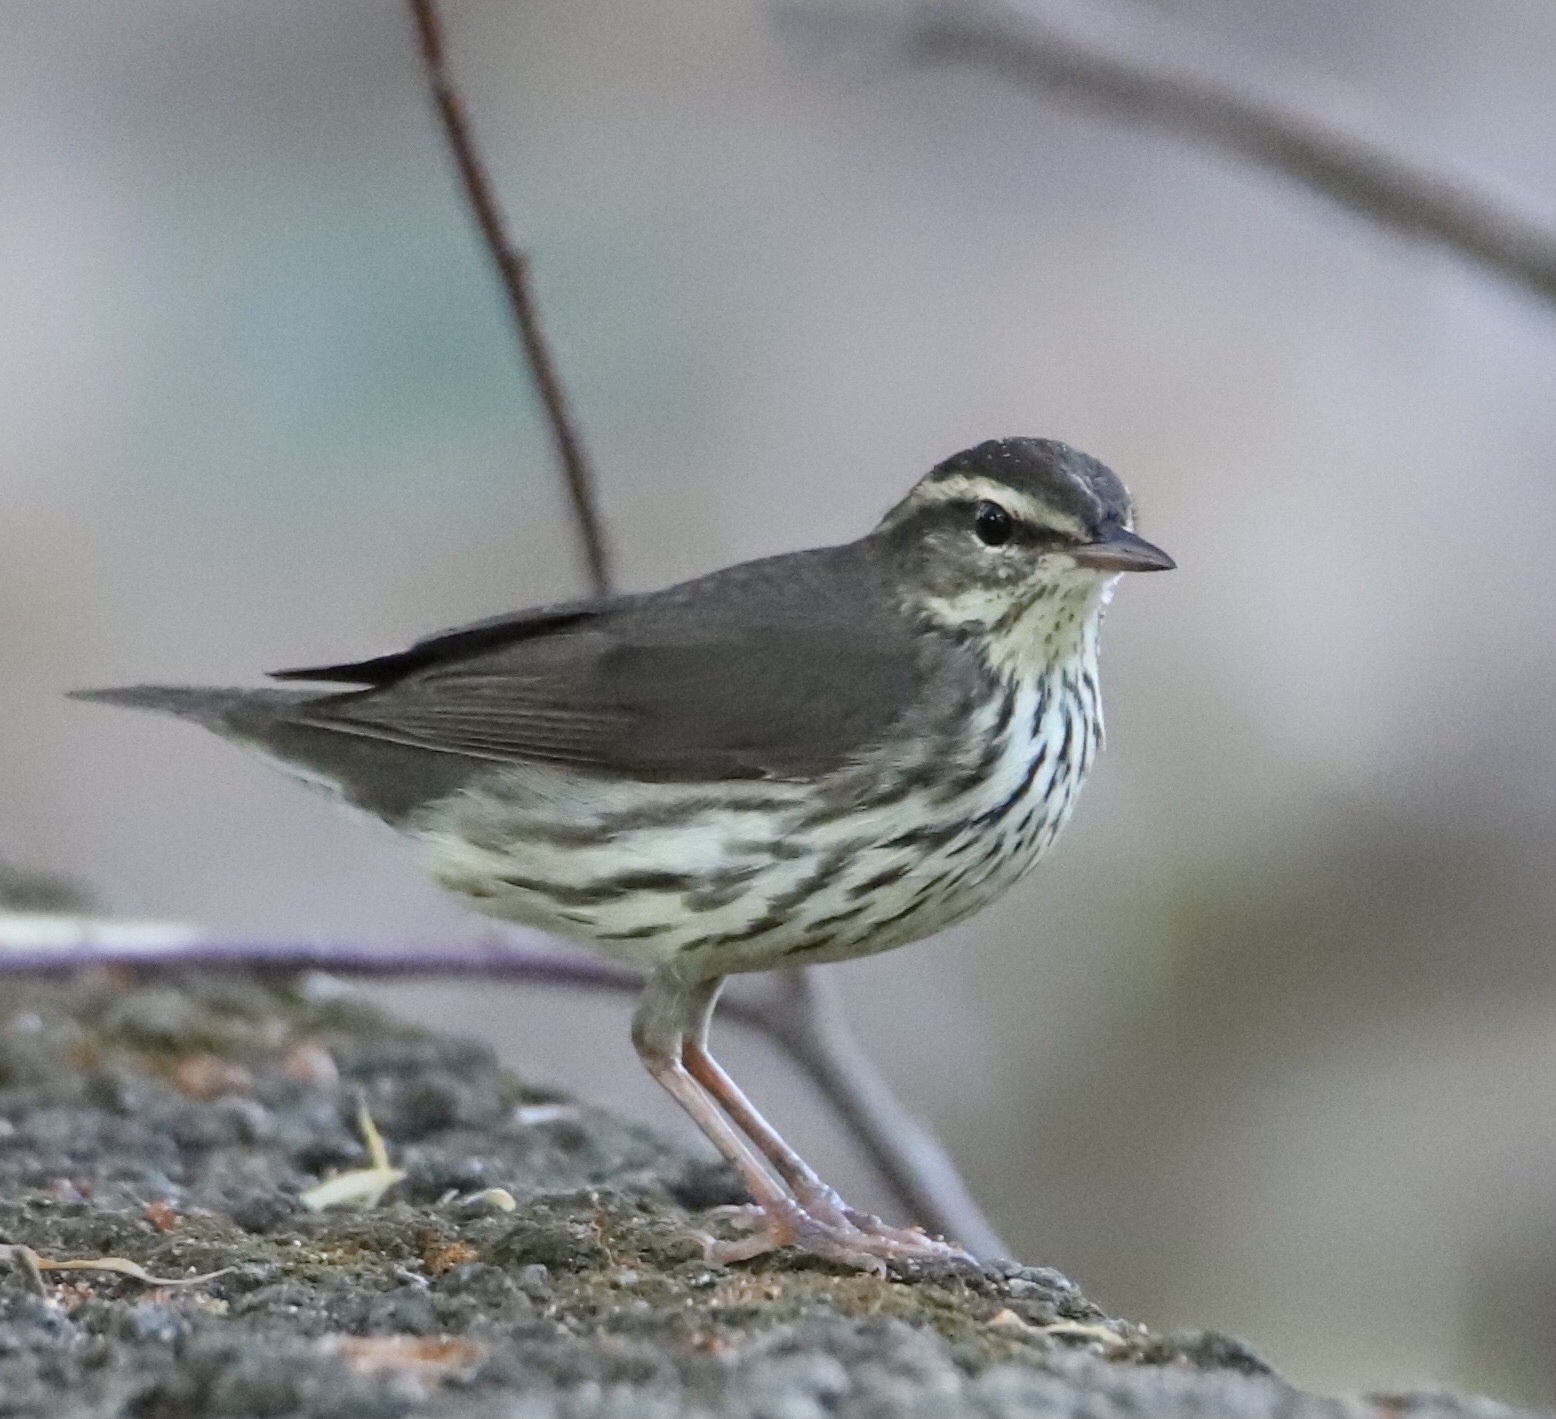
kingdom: Animalia
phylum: Chordata
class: Aves
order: Passeriformes
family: Parulidae
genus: Parkesia
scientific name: Parkesia noveboracensis
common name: Northern waterthrush
